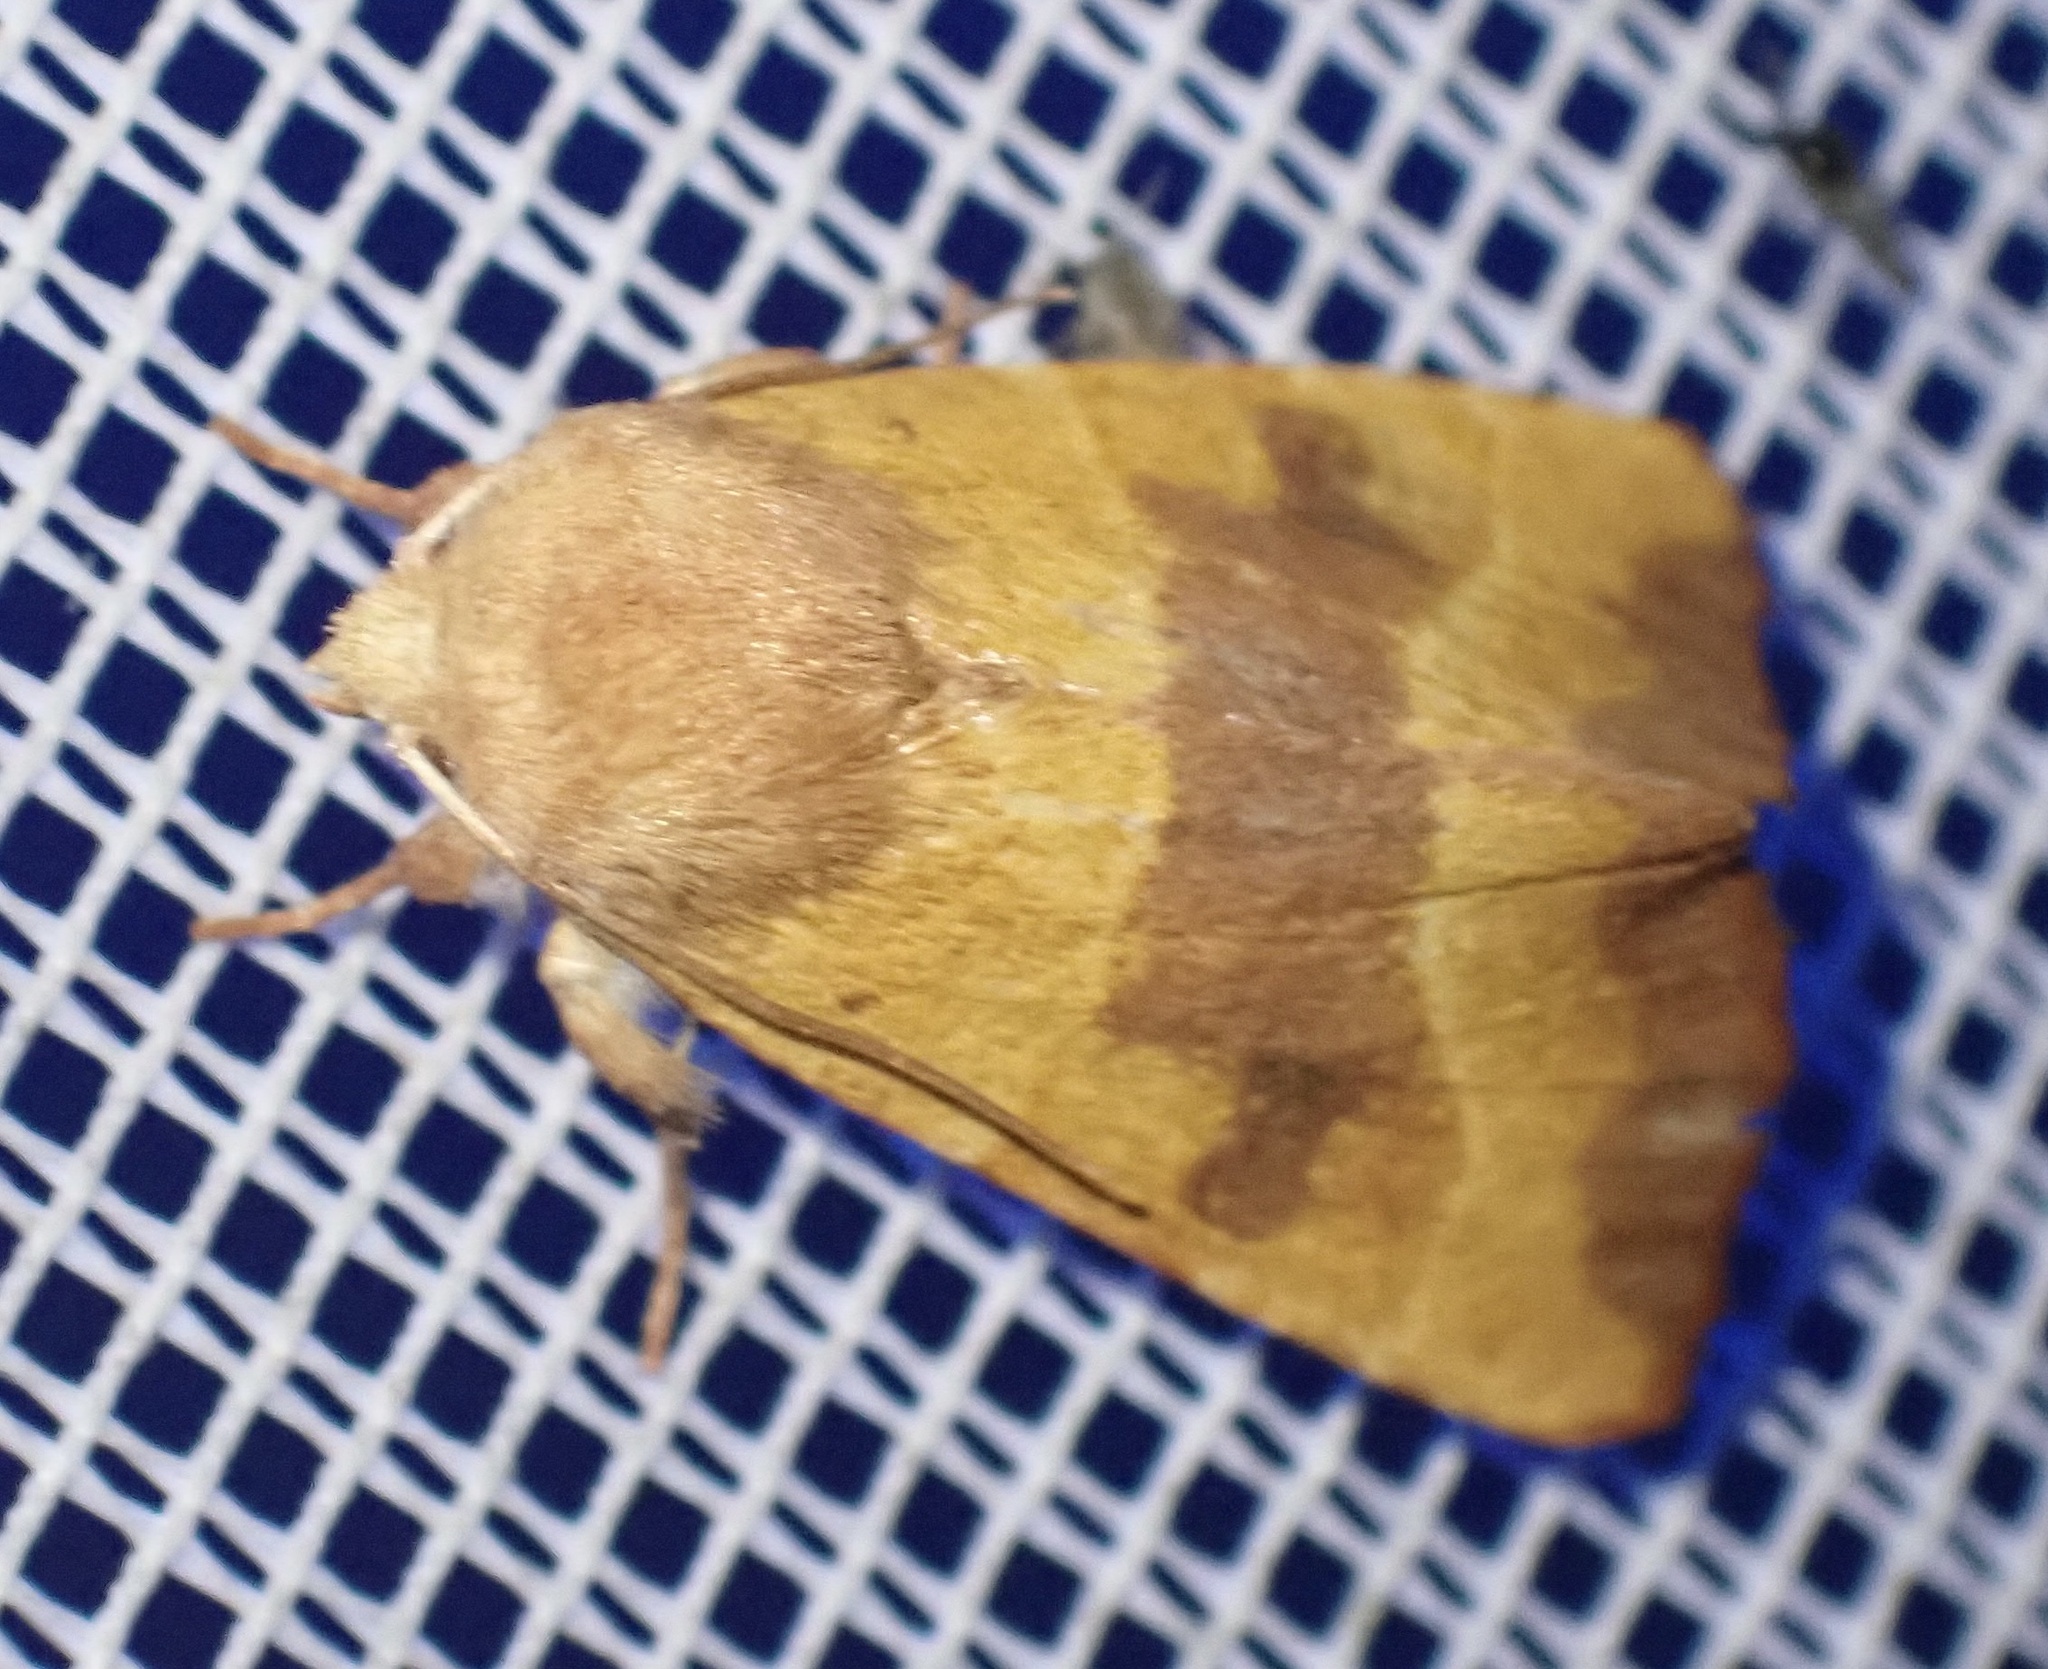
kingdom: Animalia
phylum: Arthropoda
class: Insecta
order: Lepidoptera
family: Noctuidae
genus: Atethmia
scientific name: Atethmia centrago
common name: Centre-barred sallow
